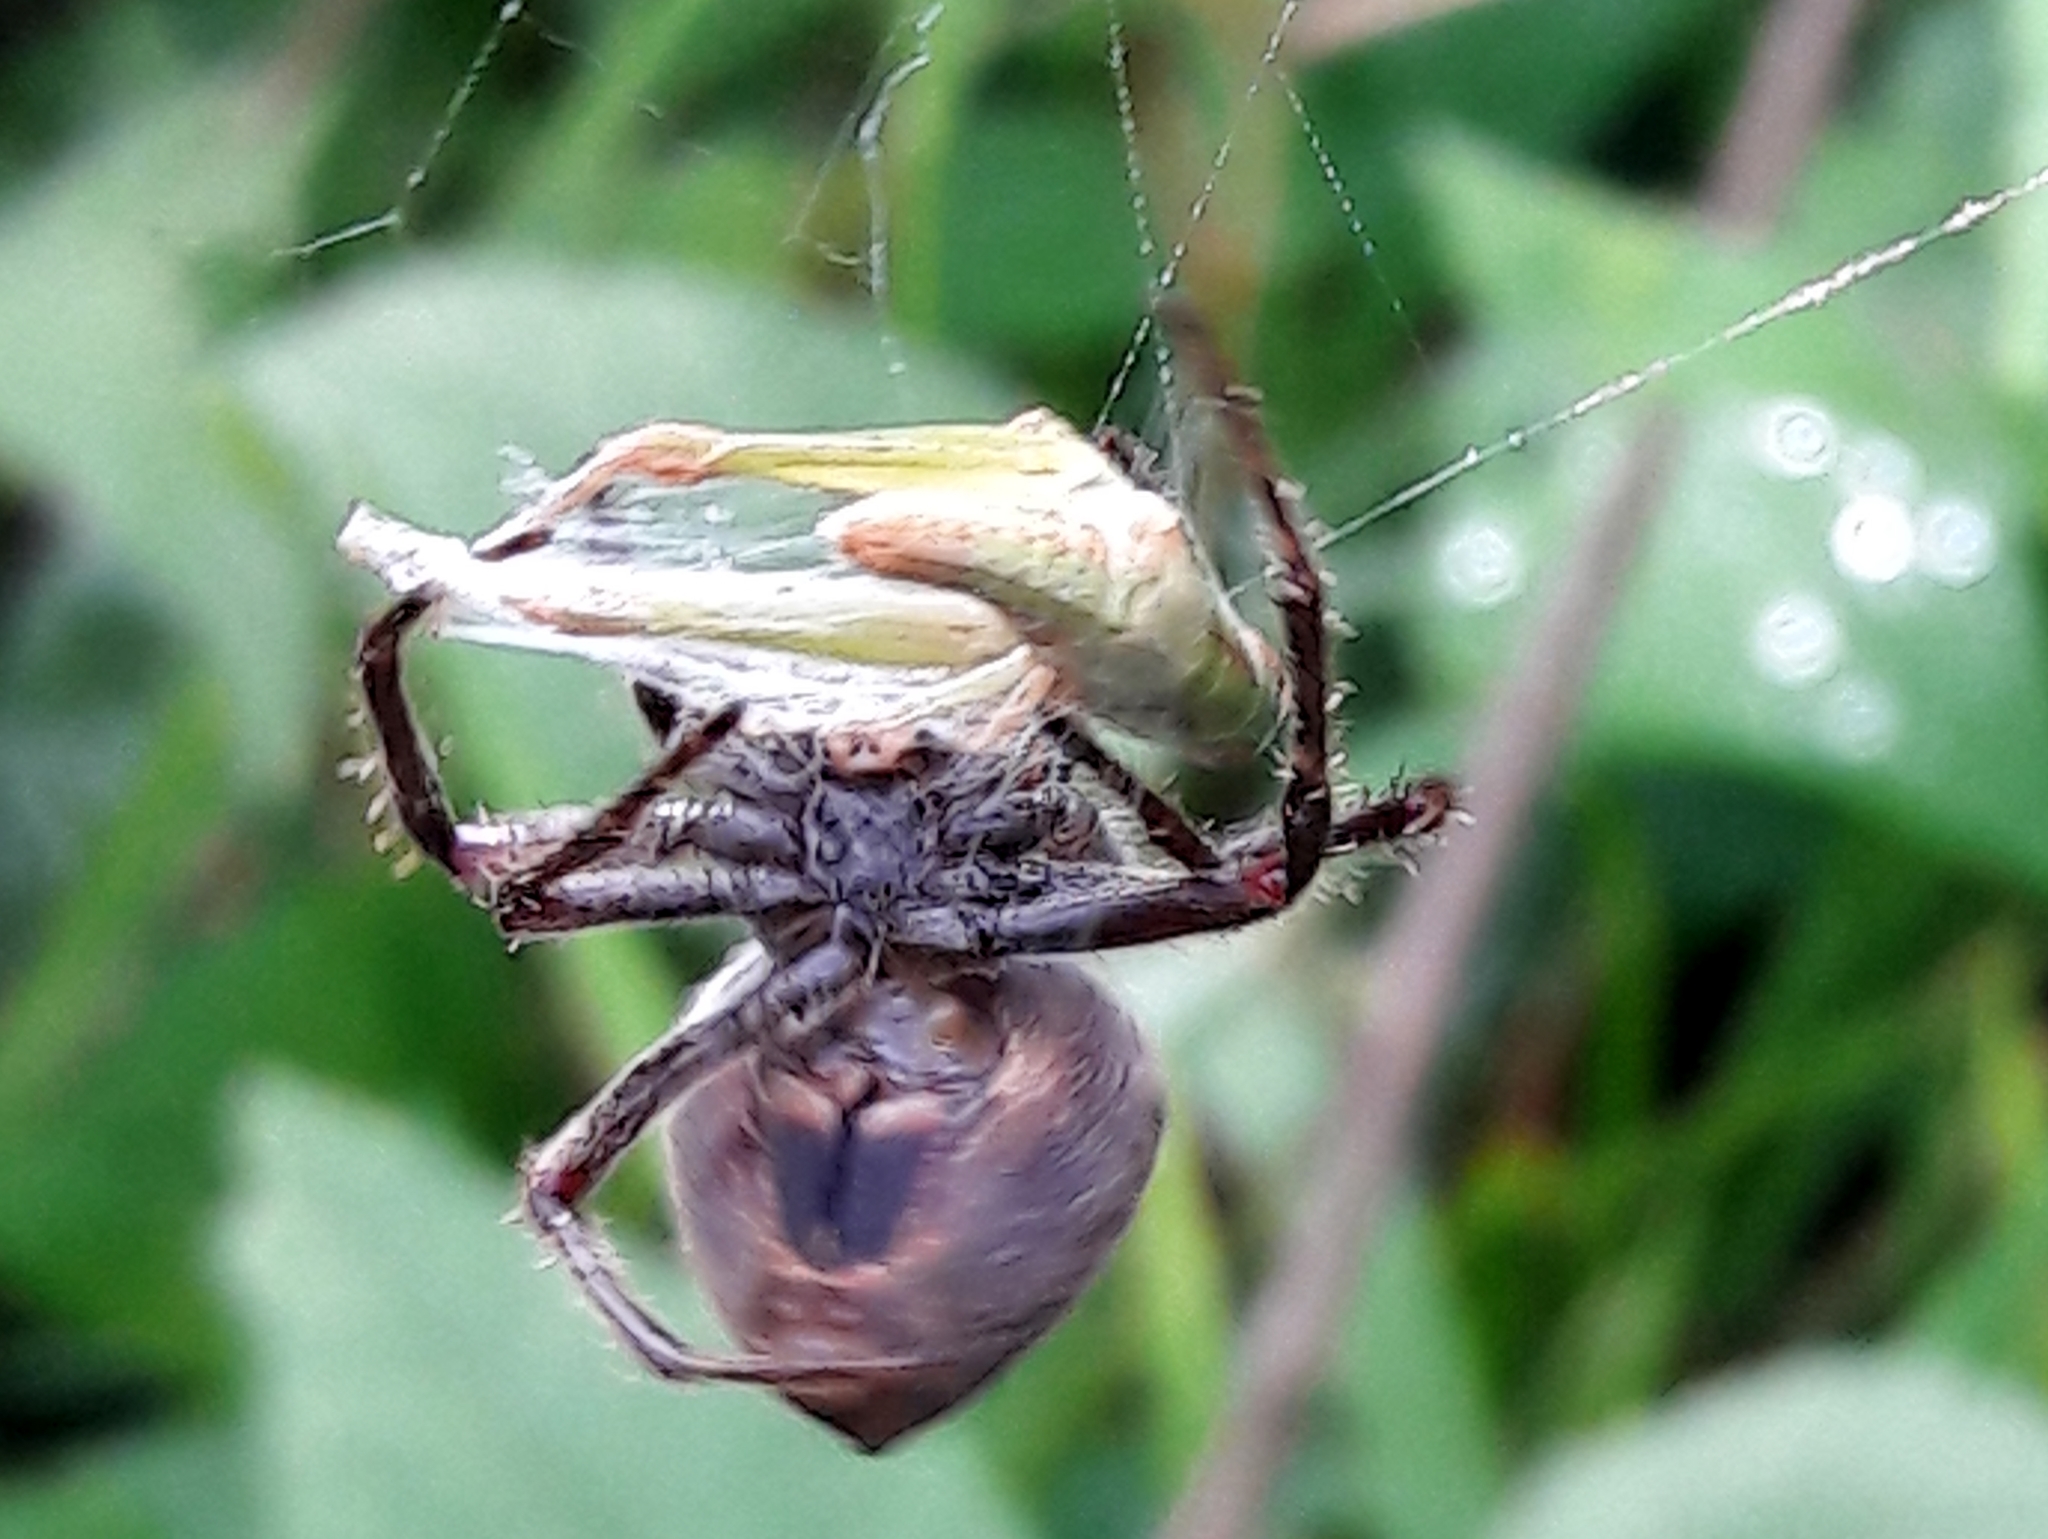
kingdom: Animalia
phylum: Arthropoda
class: Arachnida
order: Araneae
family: Araneidae
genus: Eriophora
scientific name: Eriophora edax
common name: Orb weavers
